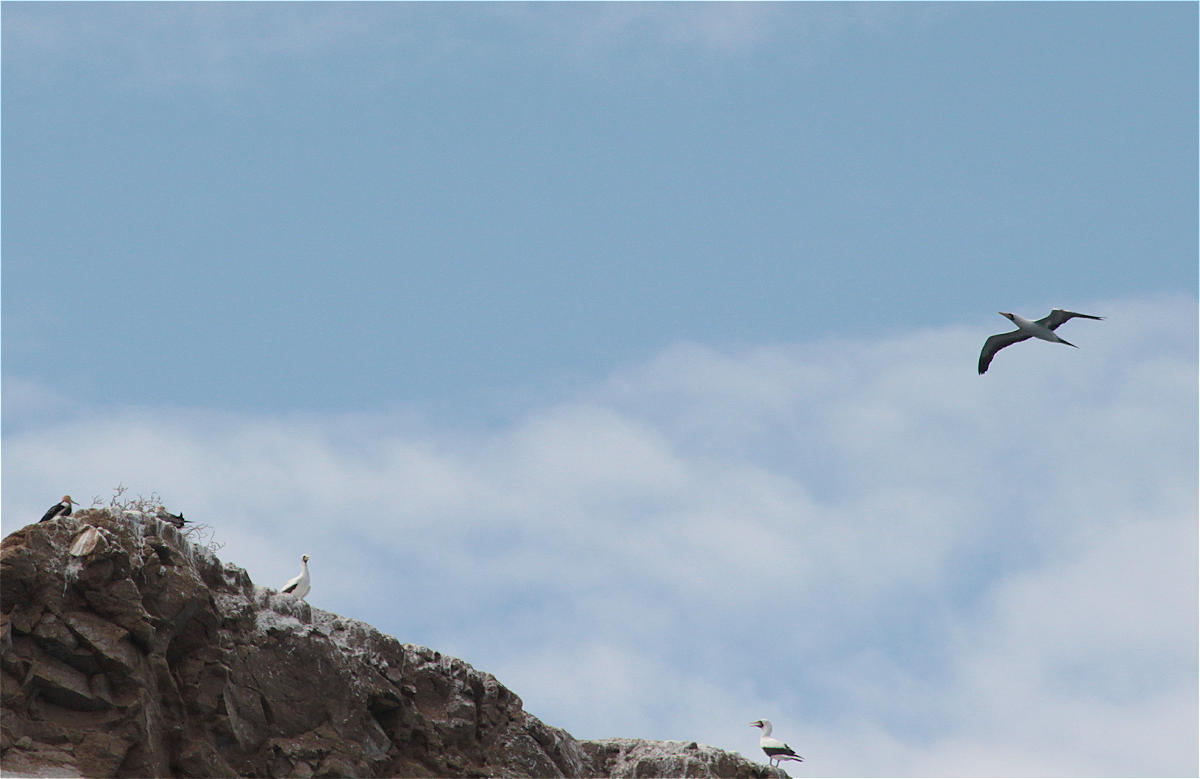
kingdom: Animalia
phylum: Chordata
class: Aves
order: Suliformes
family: Sulidae
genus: Sula
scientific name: Sula granti
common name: Nazca booby
